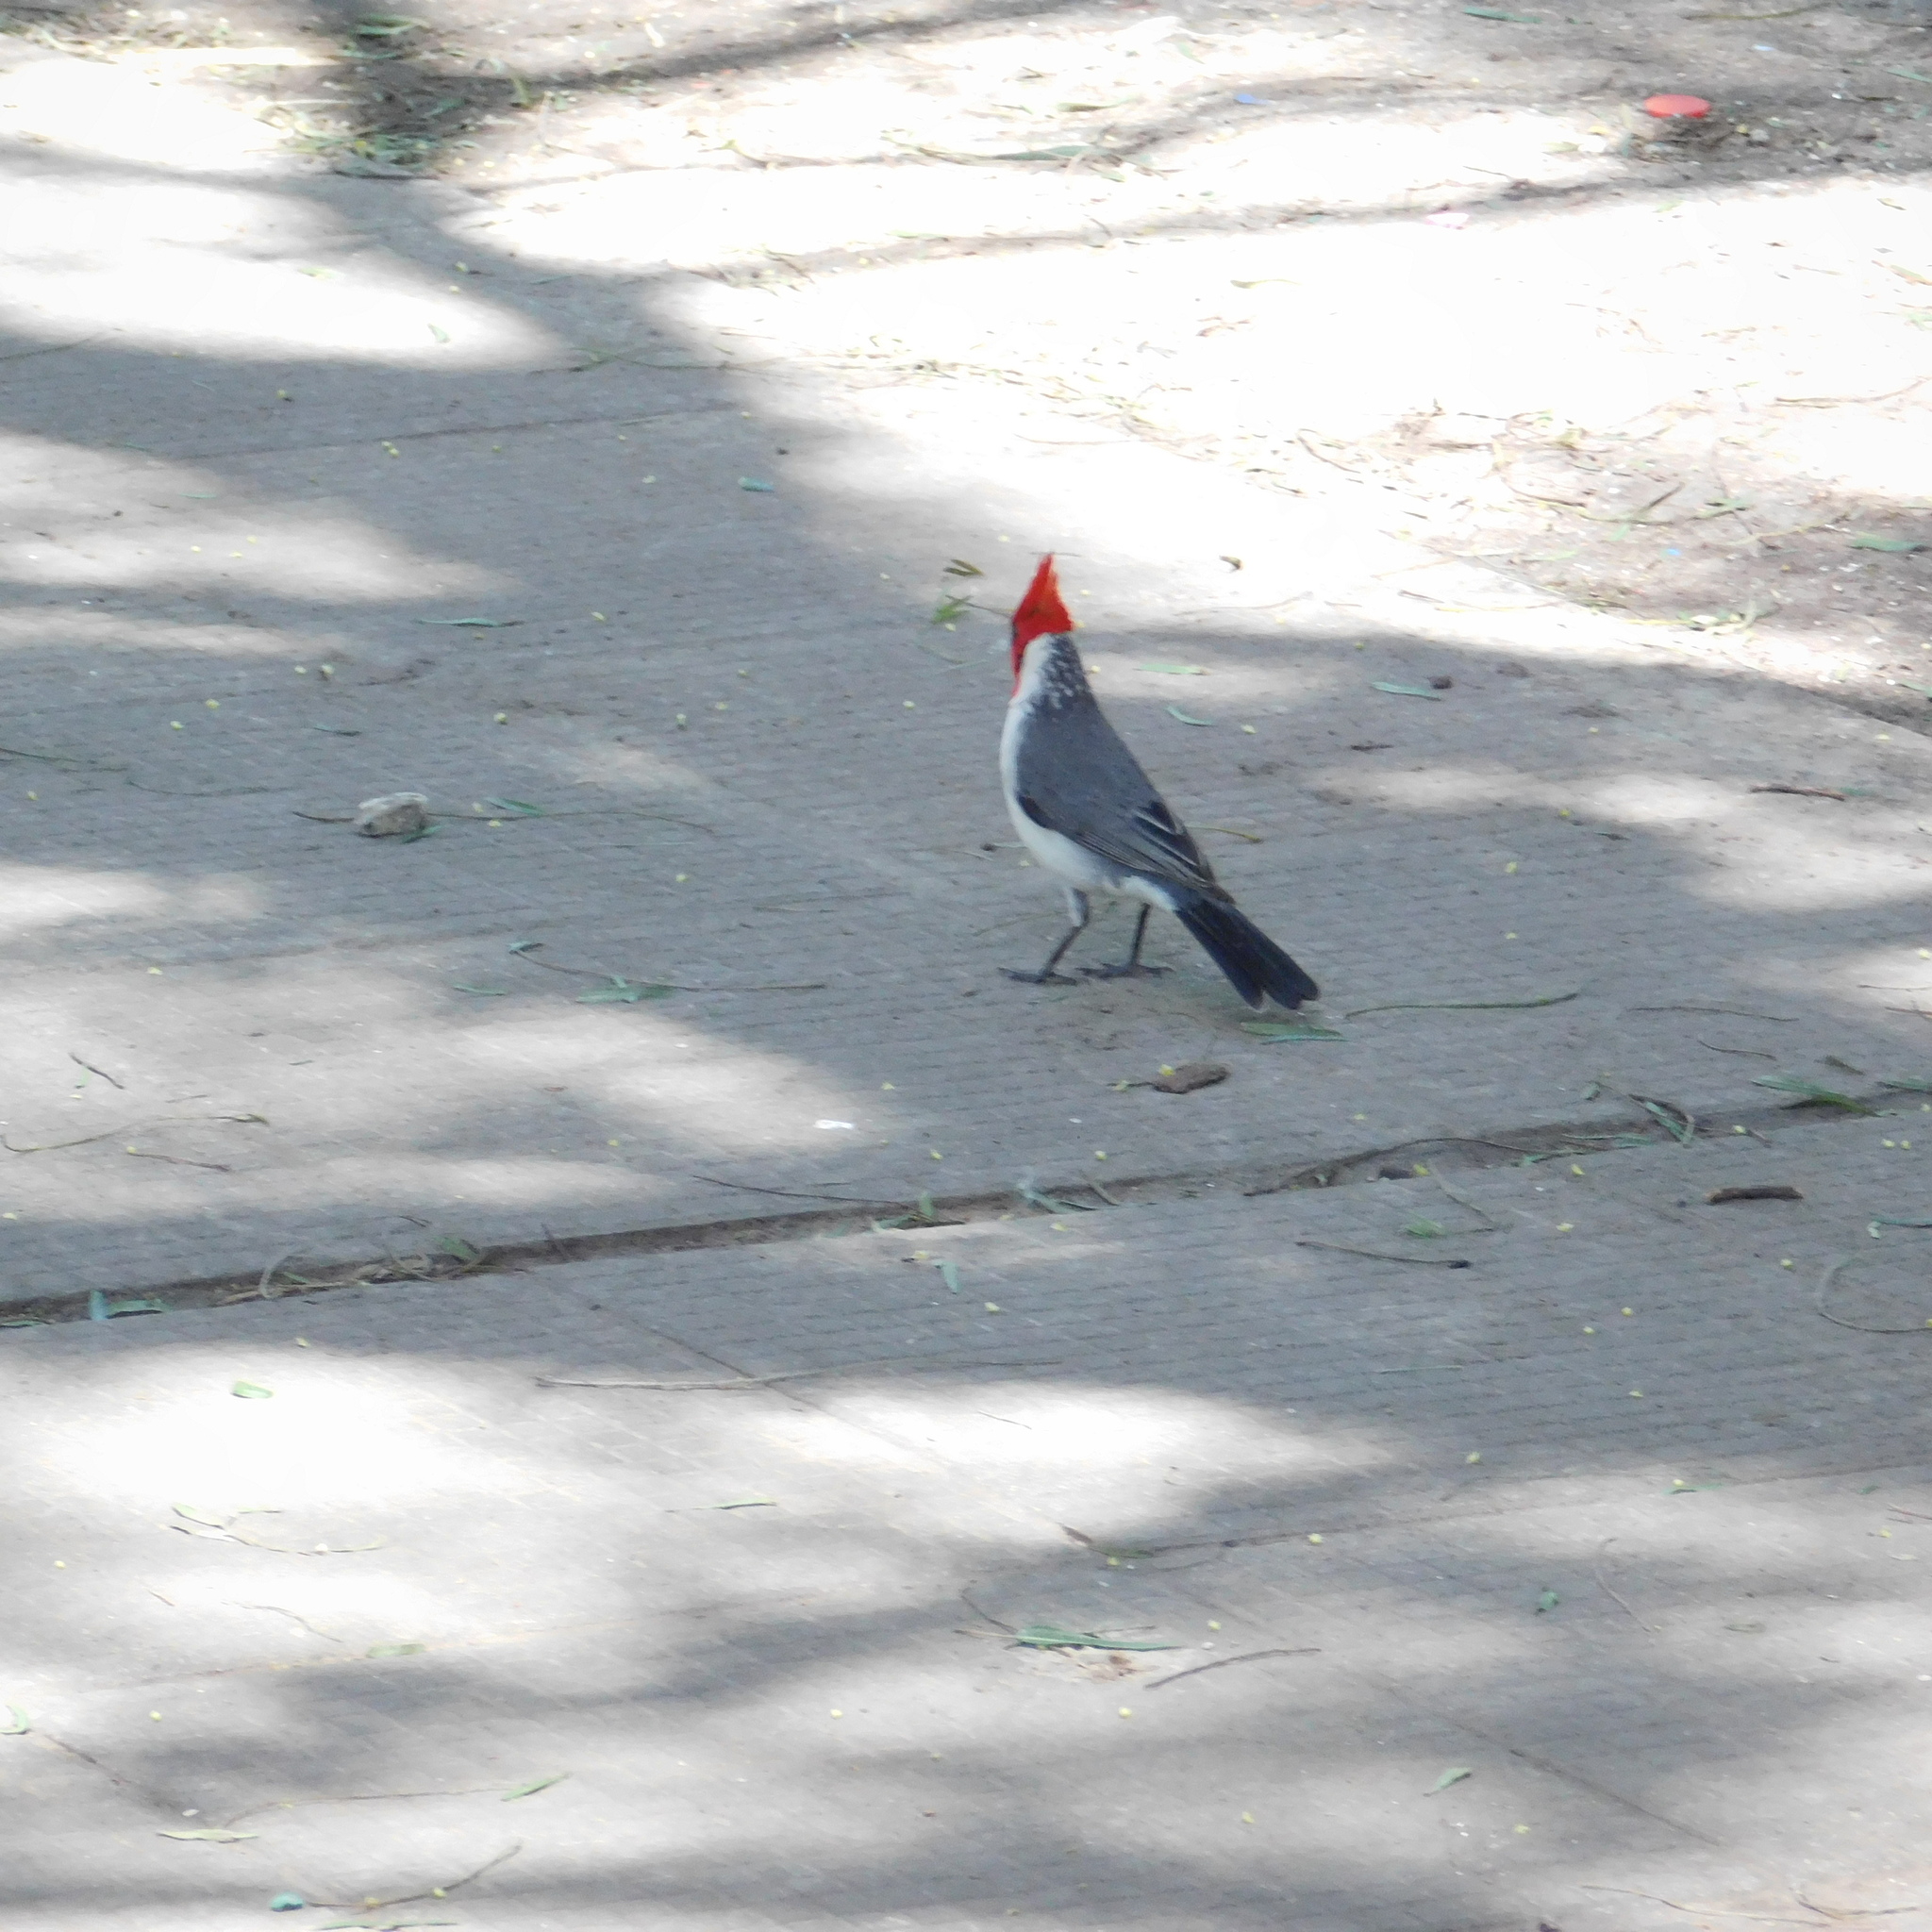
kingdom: Animalia
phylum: Chordata
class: Aves
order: Passeriformes
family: Thraupidae
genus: Paroaria
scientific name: Paroaria coronata
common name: Red-crested cardinal
